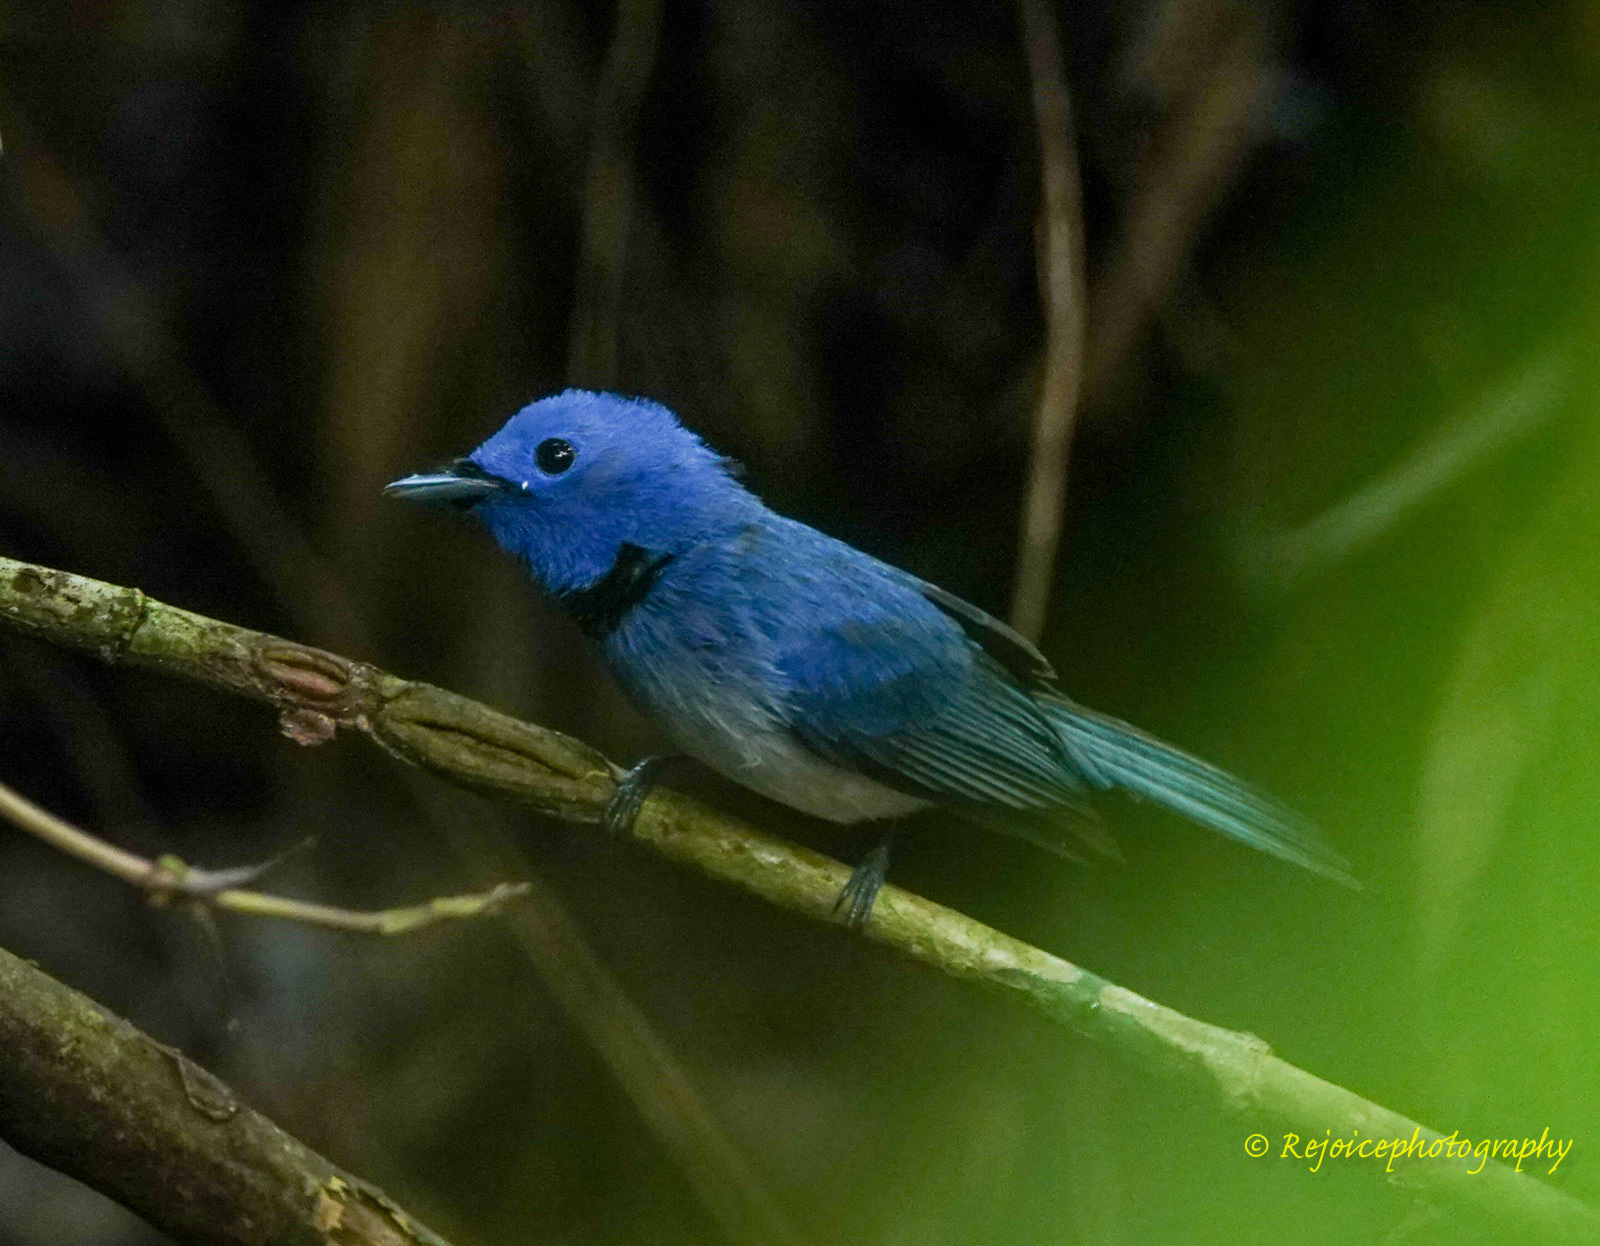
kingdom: Animalia
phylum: Chordata
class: Aves
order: Passeriformes
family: Monarchidae
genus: Hypothymis
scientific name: Hypothymis azurea
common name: Black-naped monarch
